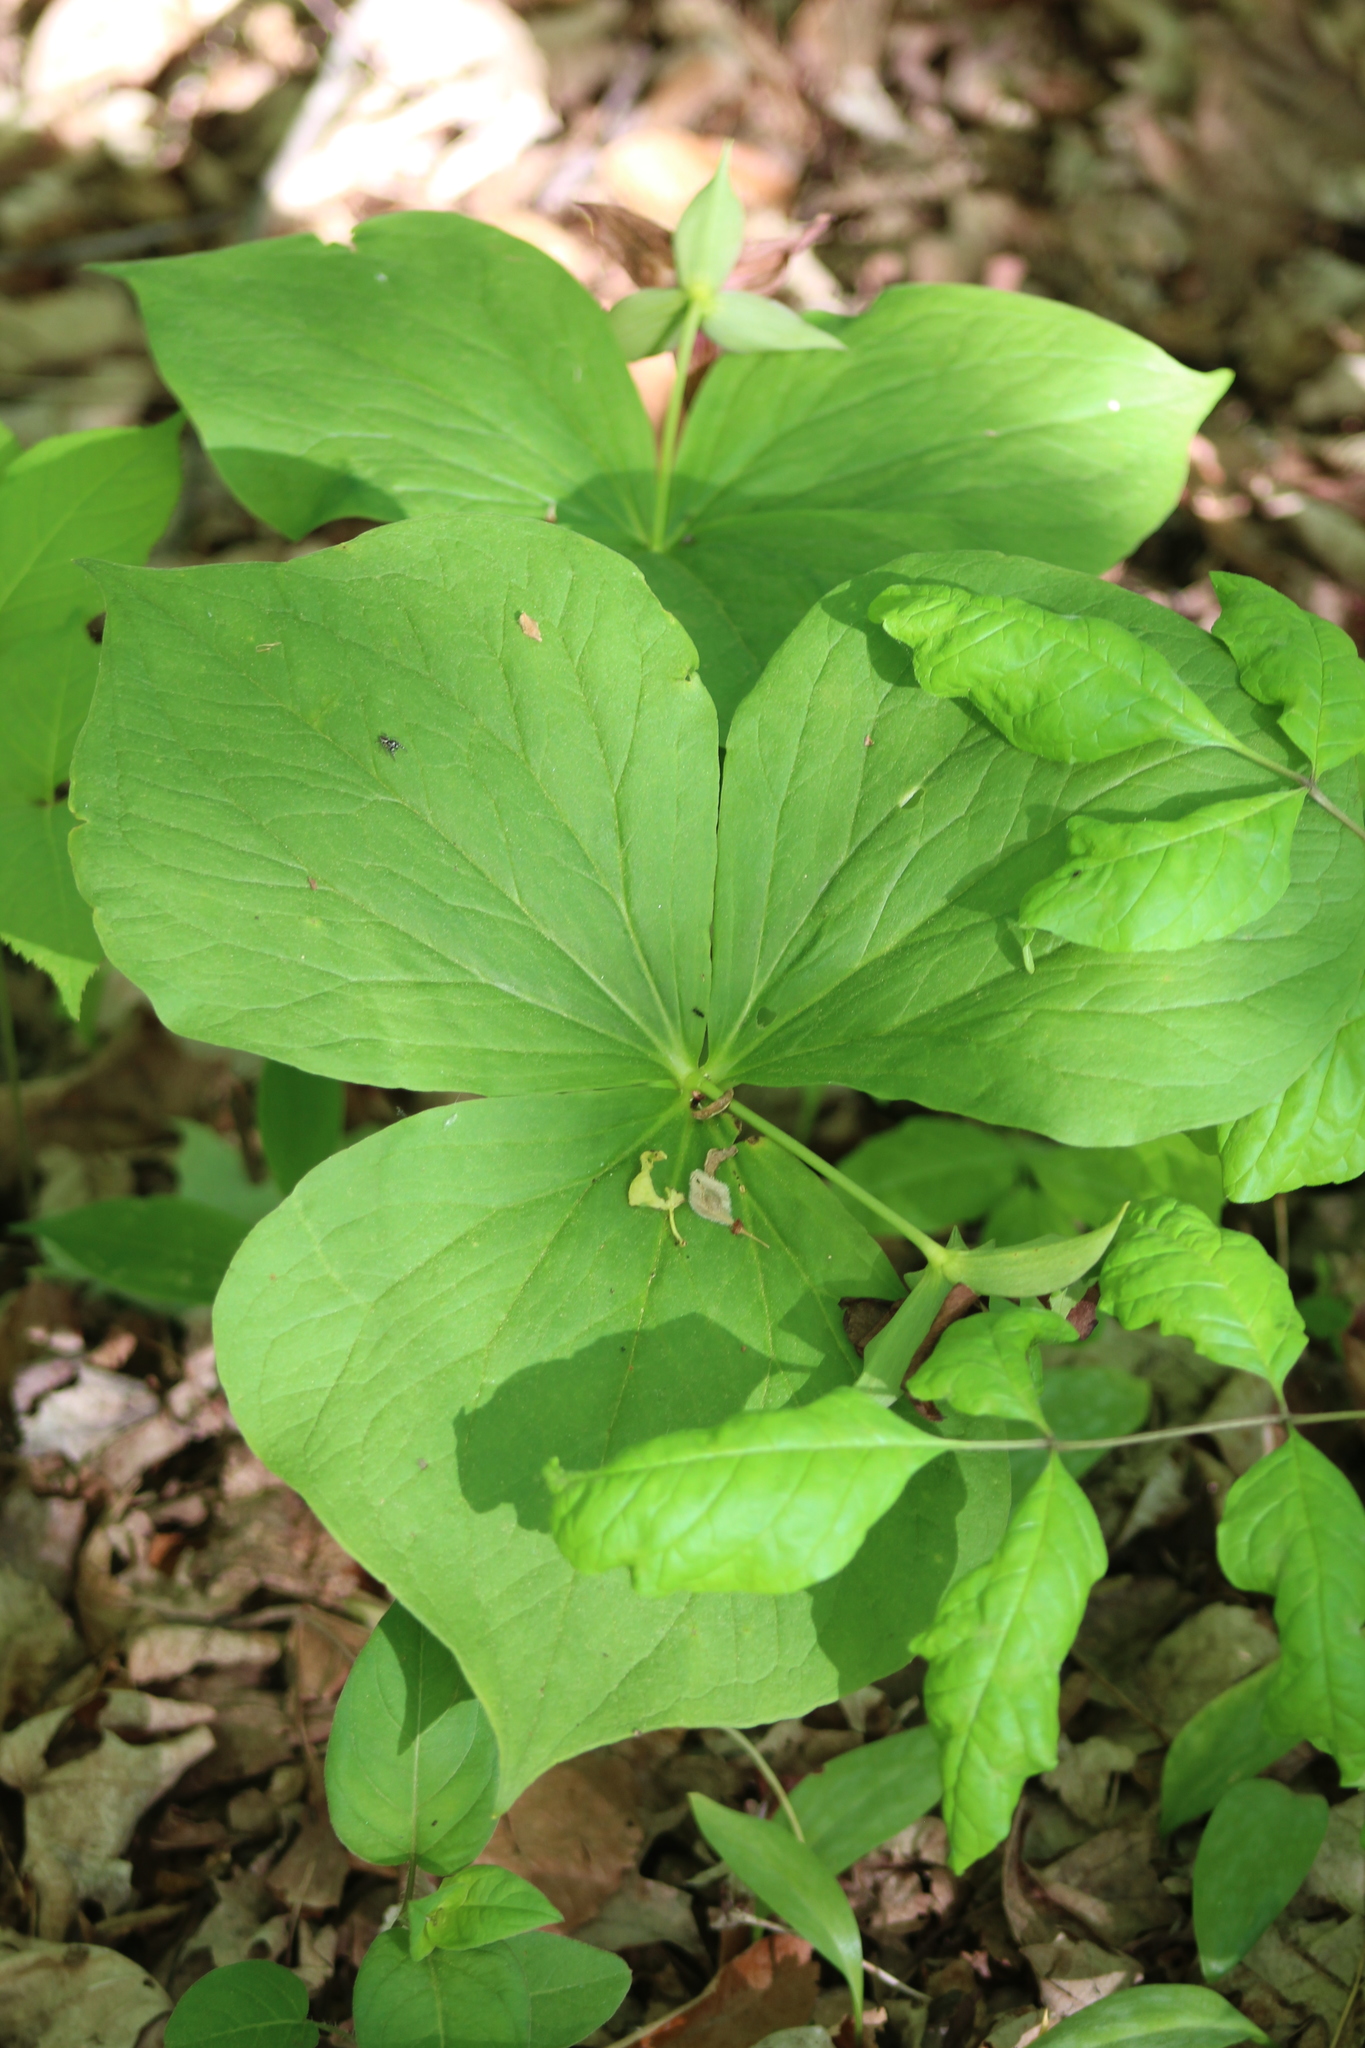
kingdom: Plantae
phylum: Tracheophyta
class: Liliopsida
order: Liliales
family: Melanthiaceae
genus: Trillium
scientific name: Trillium erectum
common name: Purple trillium
